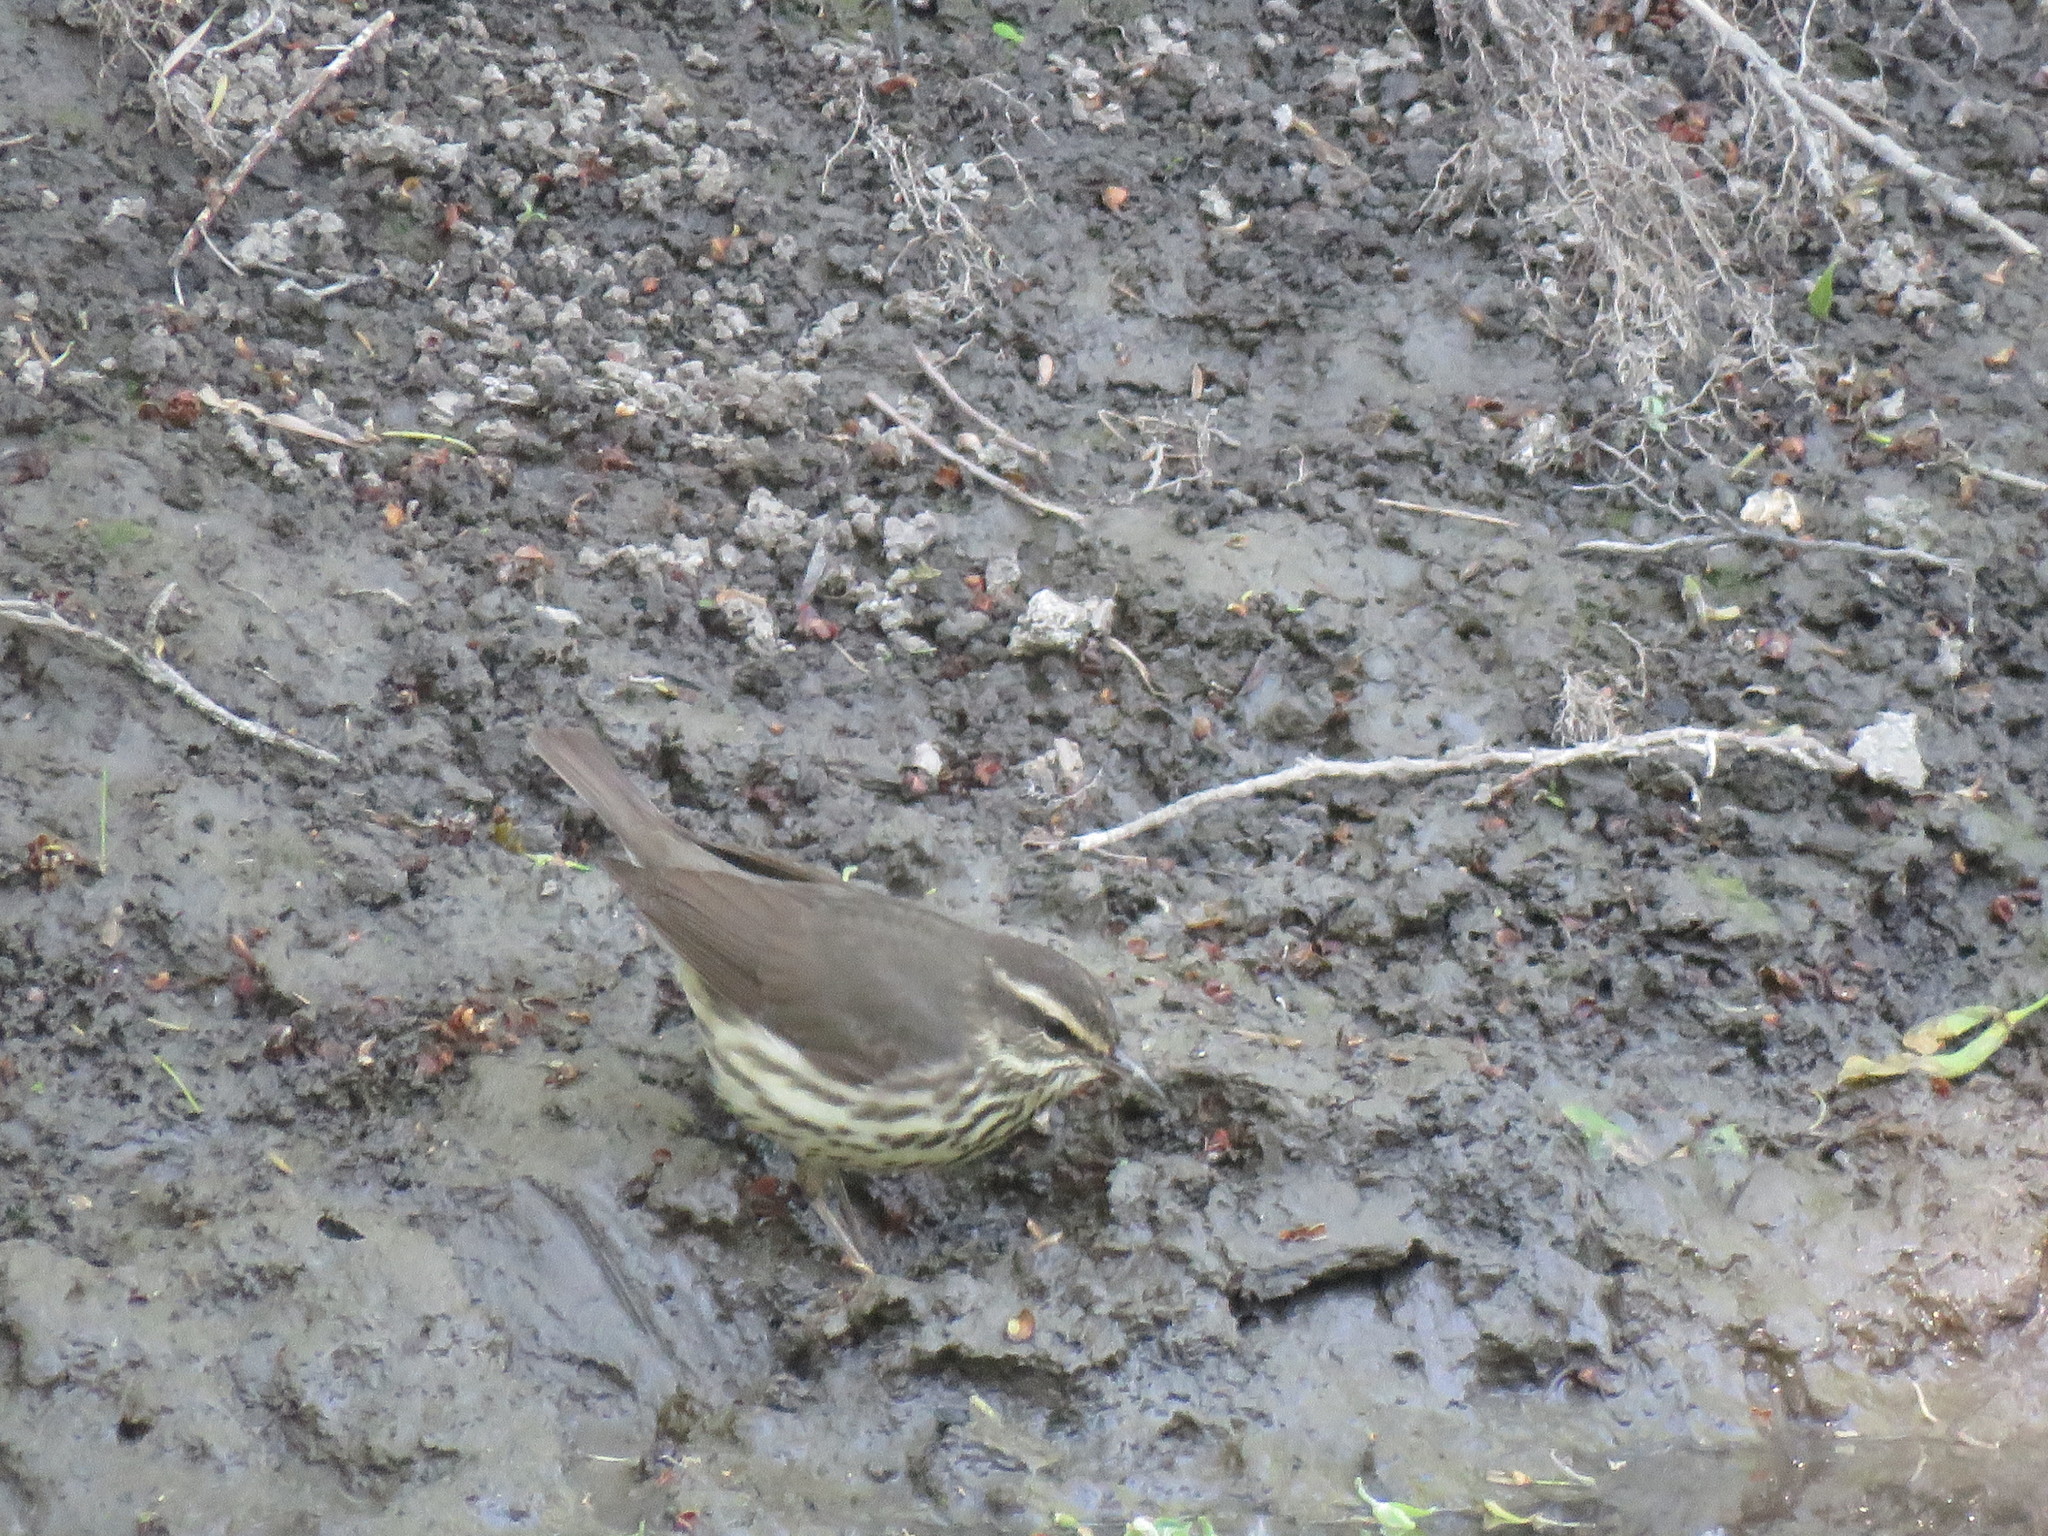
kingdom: Animalia
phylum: Chordata
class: Aves
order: Passeriformes
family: Parulidae
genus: Parkesia
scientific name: Parkesia noveboracensis
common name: Northern waterthrush
